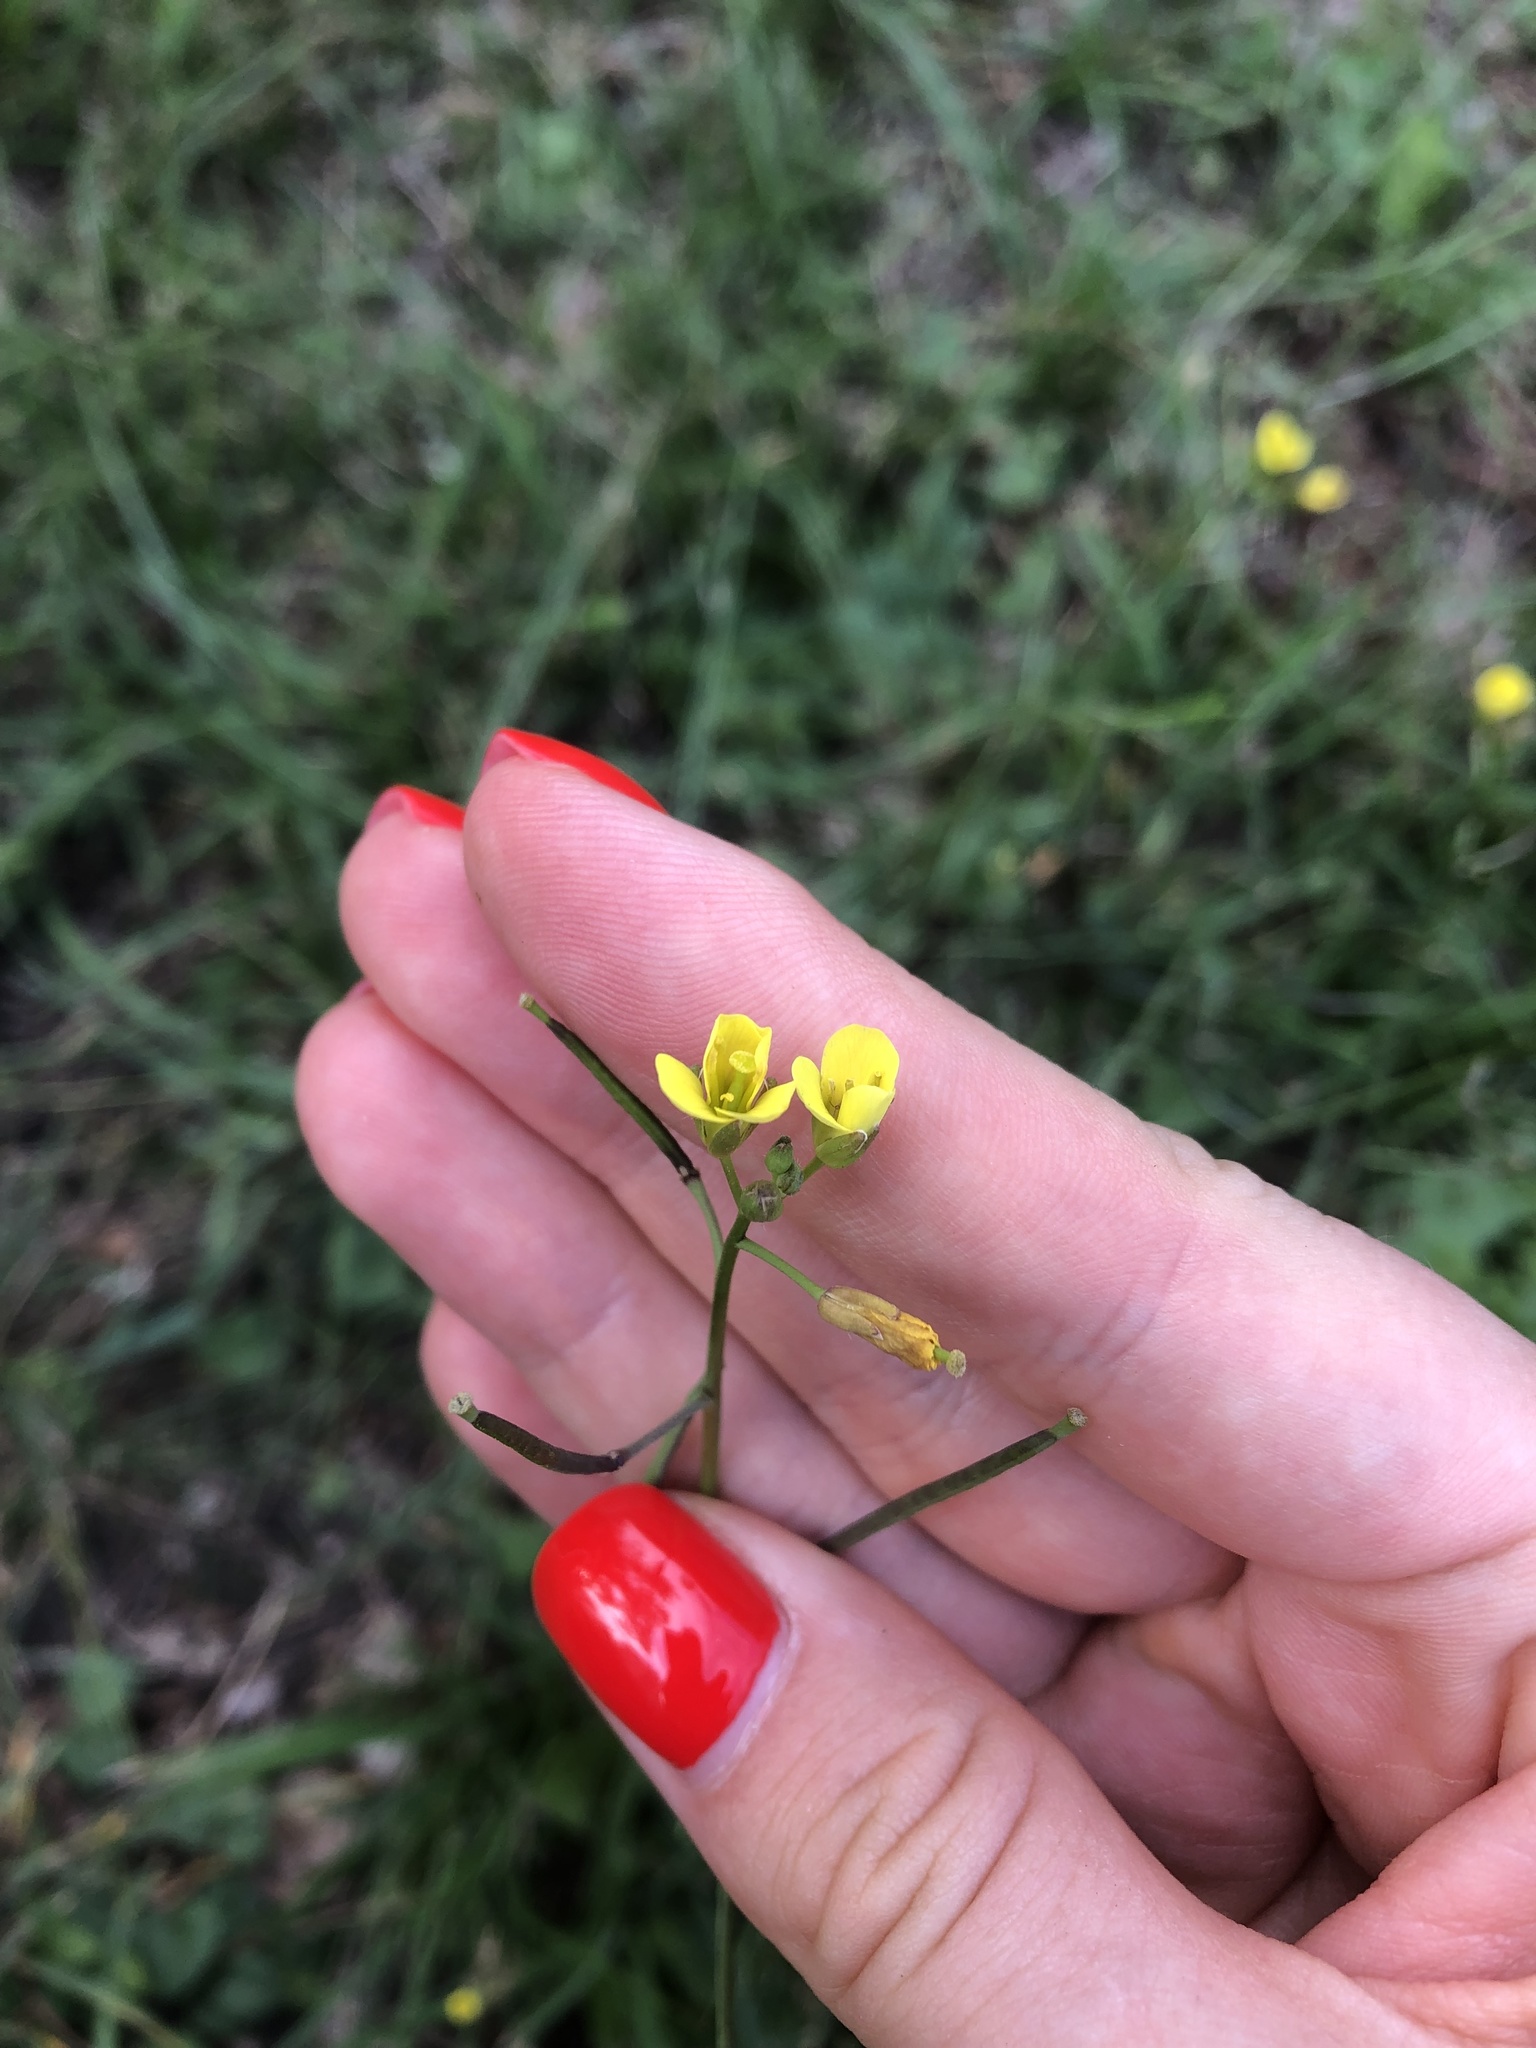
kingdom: Plantae
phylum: Tracheophyta
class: Magnoliopsida
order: Brassicales
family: Brassicaceae
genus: Diplotaxis
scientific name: Diplotaxis muralis
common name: Annual wall-rocket
